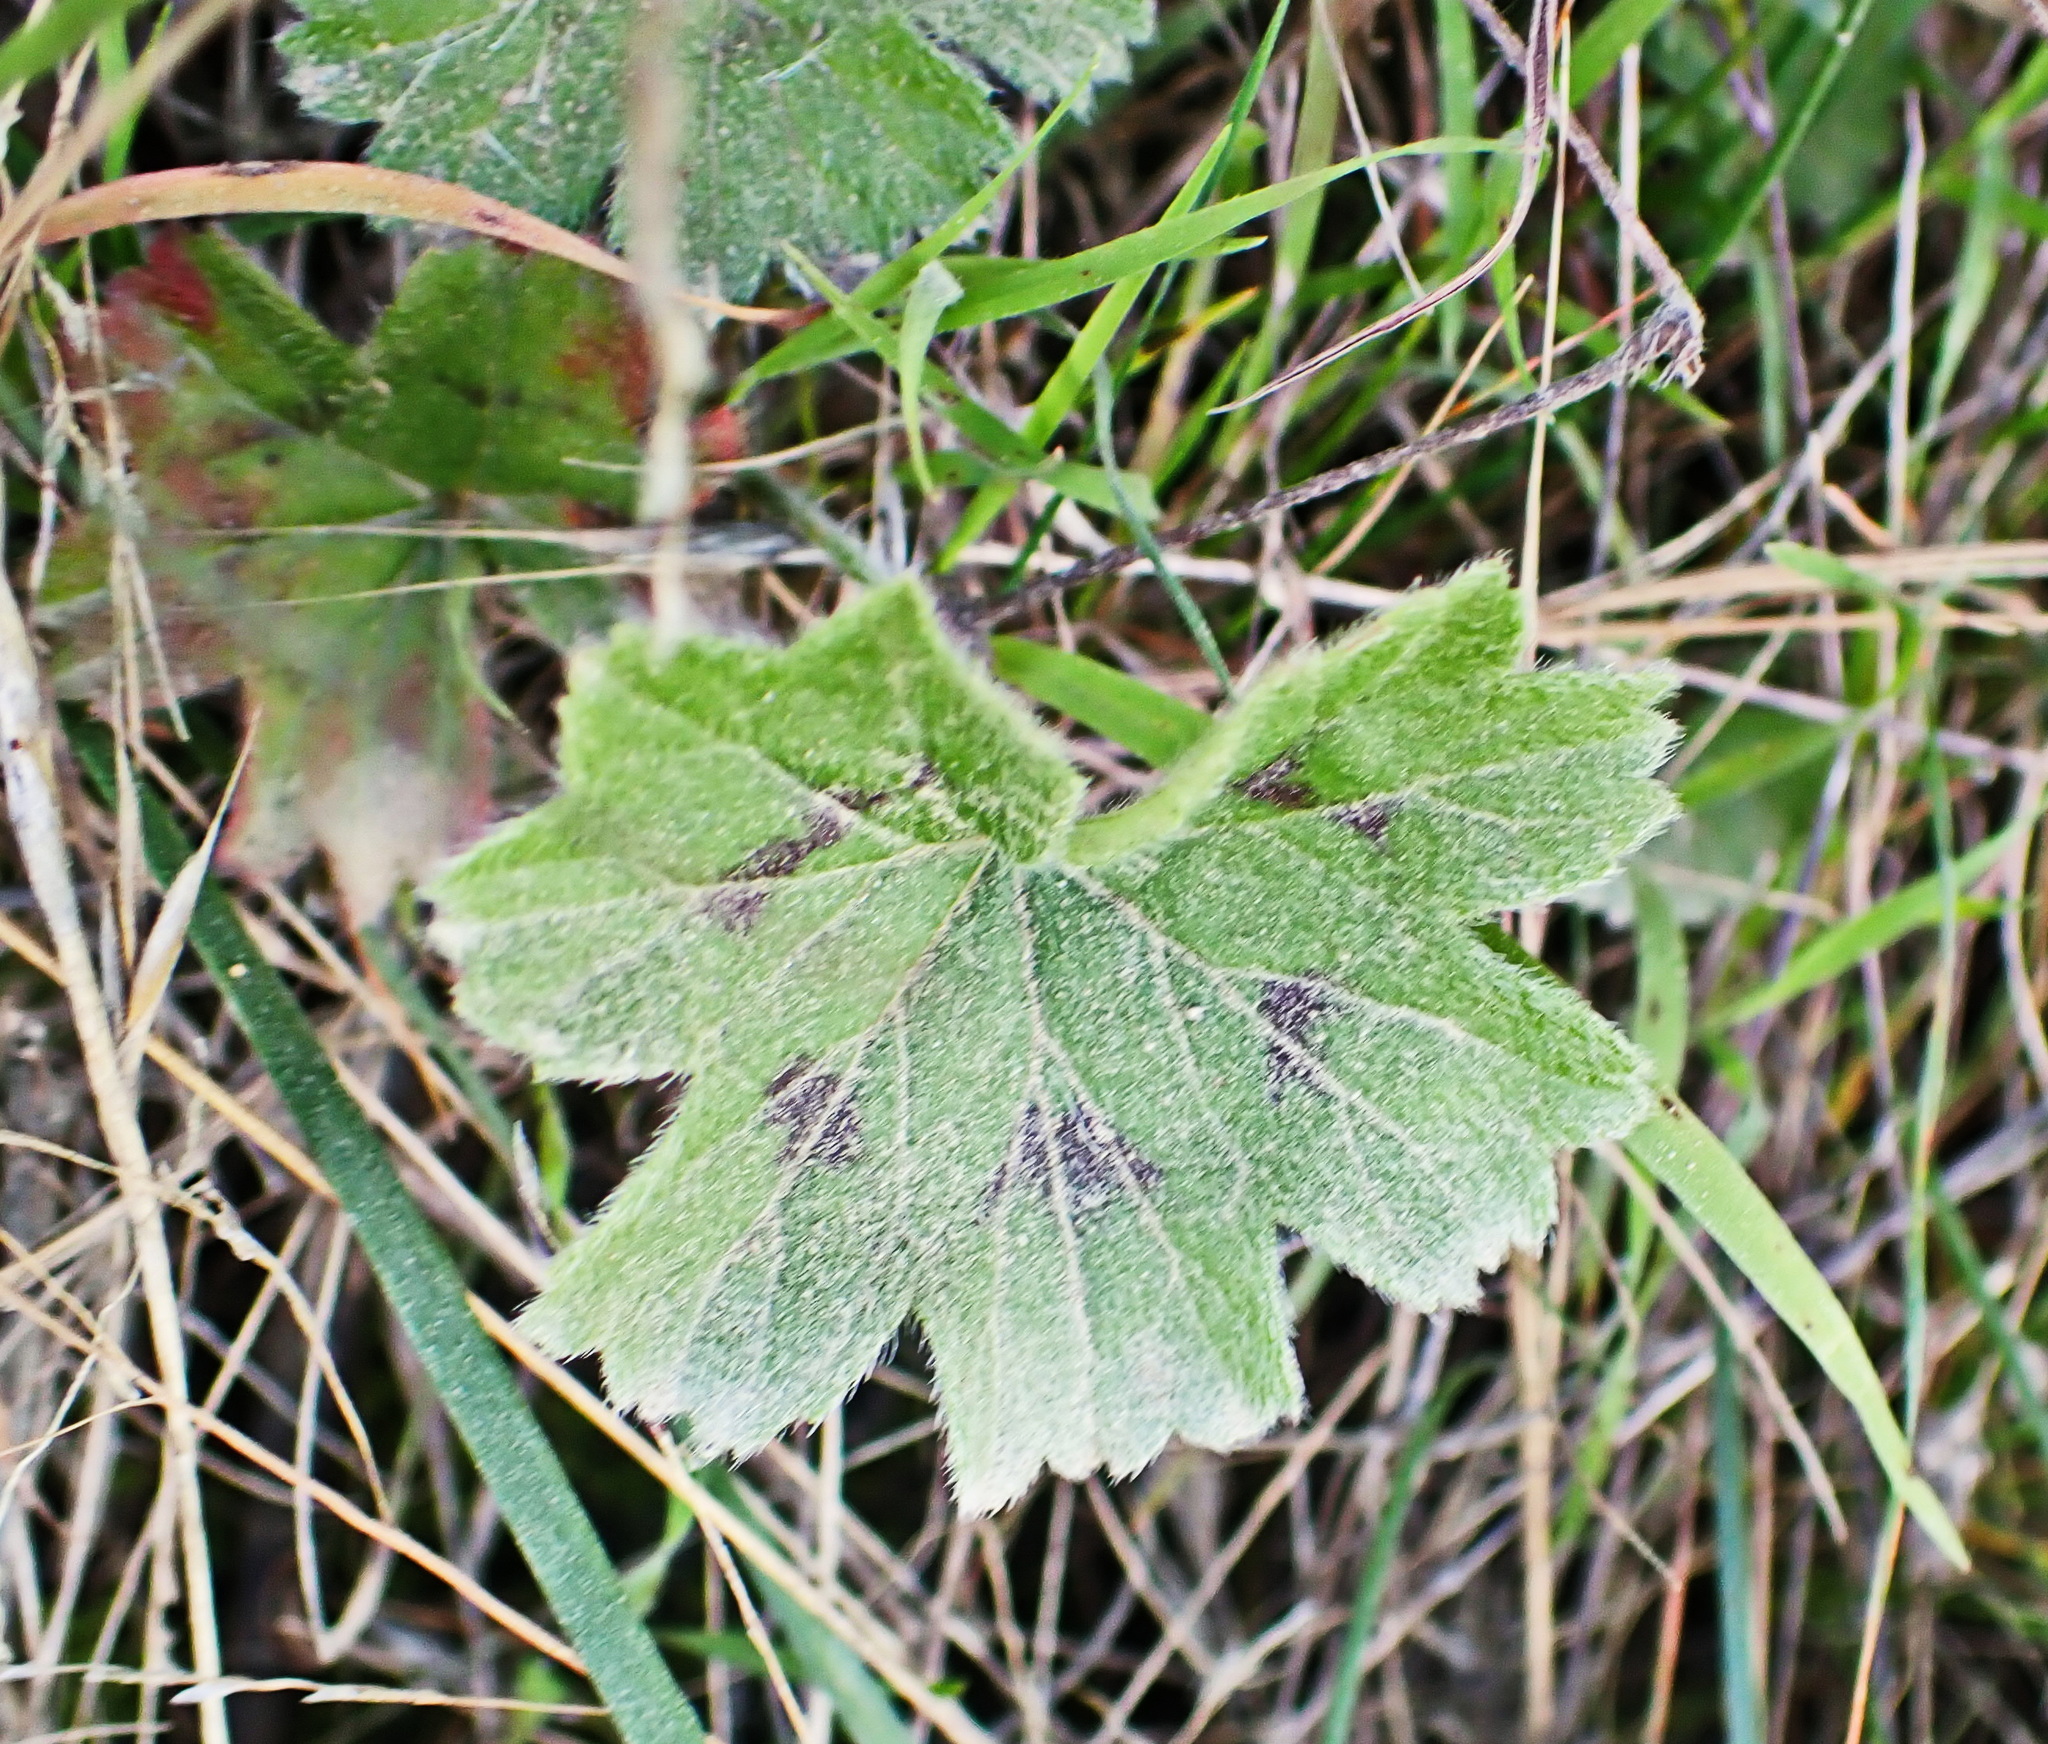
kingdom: Plantae
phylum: Tracheophyta
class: Magnoliopsida
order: Geraniales
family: Geraniaceae
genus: Pelargonium
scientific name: Pelargonium alchemilloides
